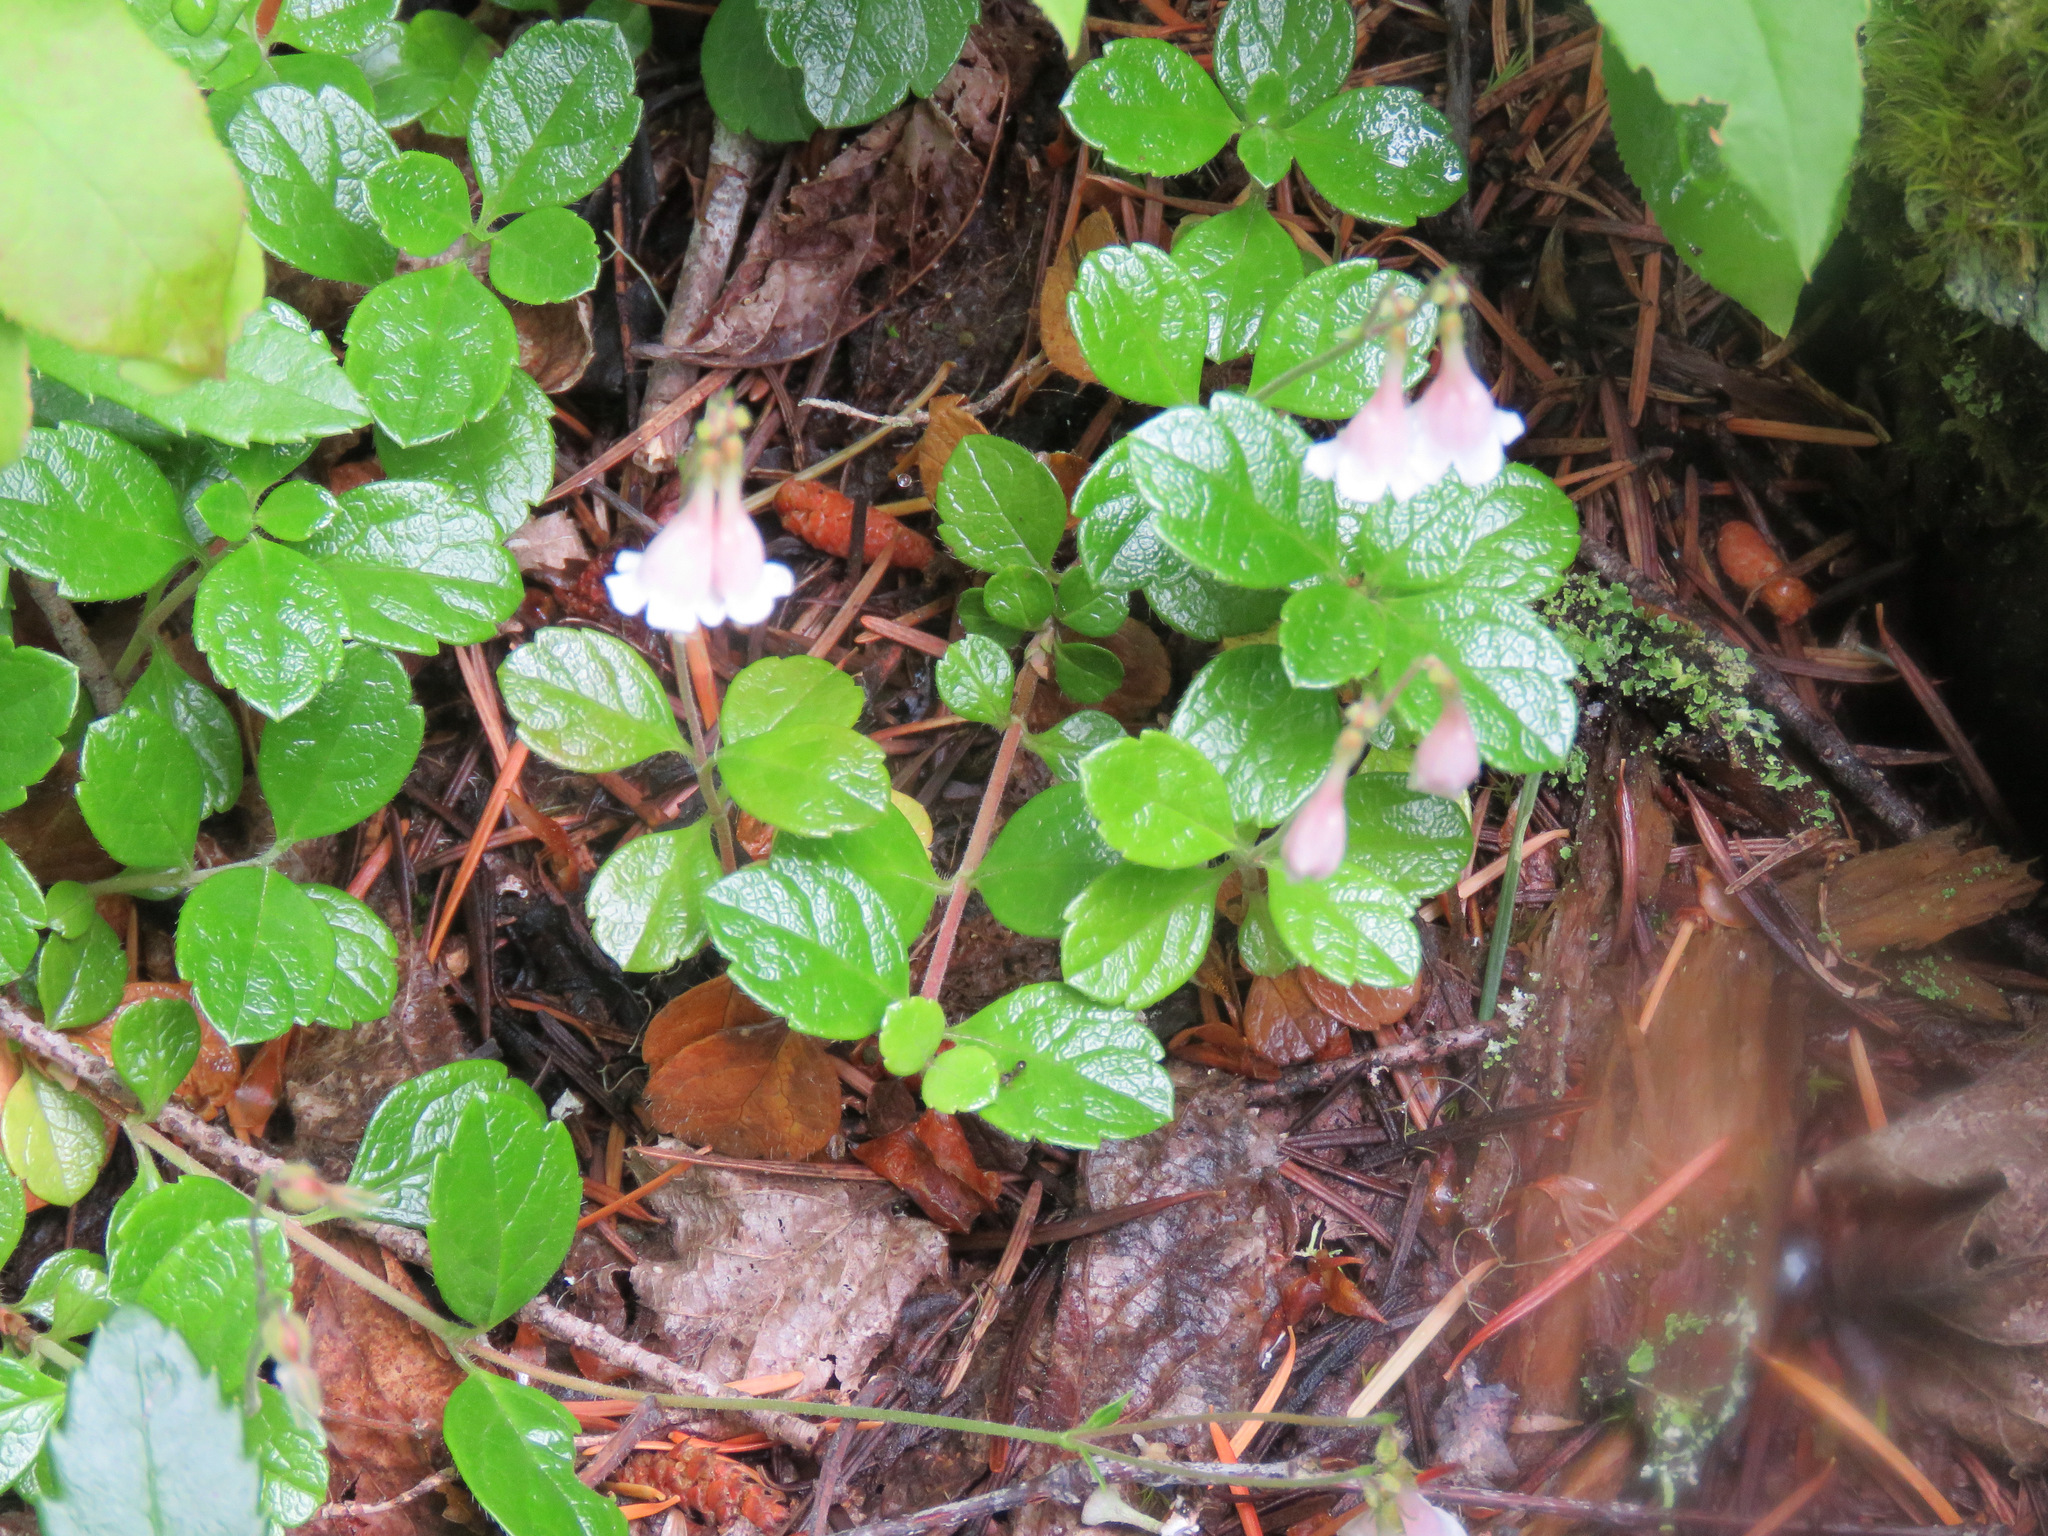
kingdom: Plantae
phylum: Tracheophyta
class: Magnoliopsida
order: Dipsacales
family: Caprifoliaceae
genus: Linnaea
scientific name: Linnaea borealis
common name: Twinflower
